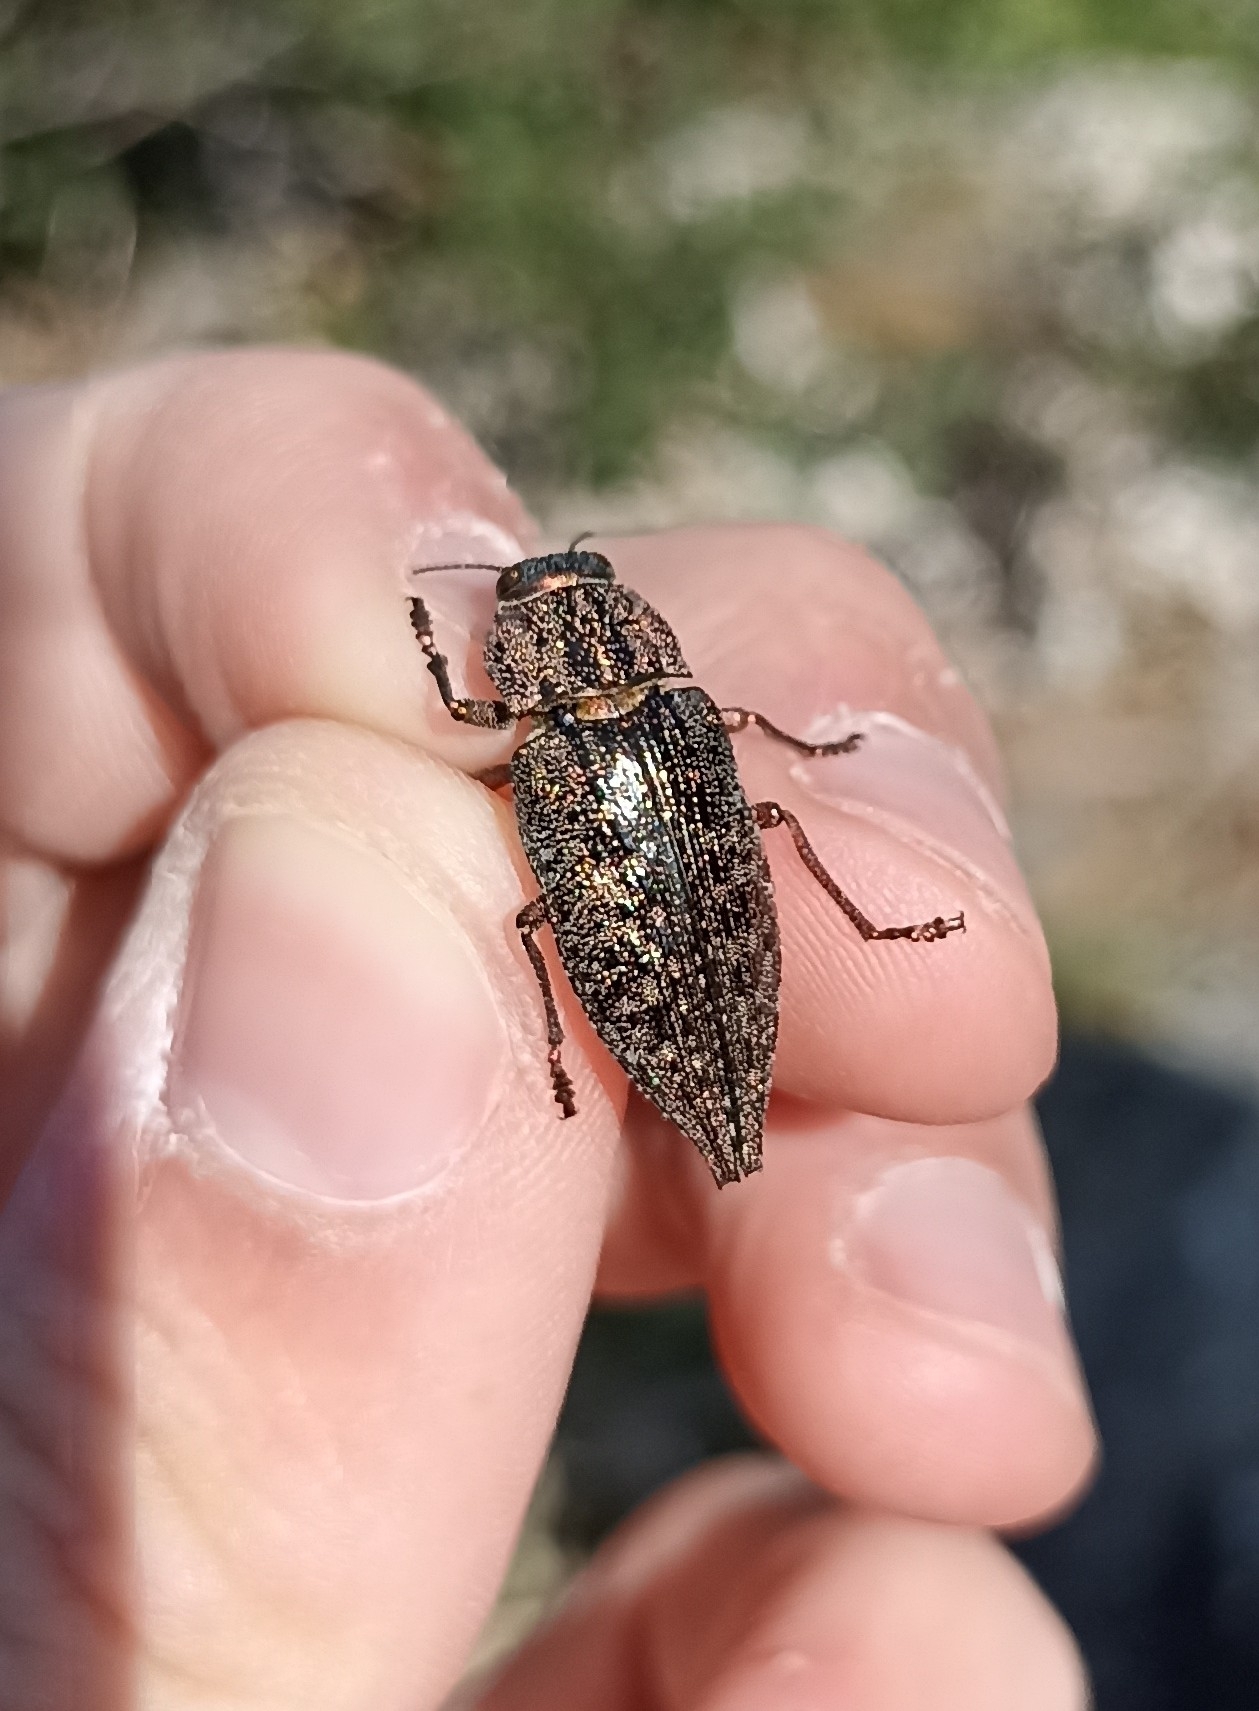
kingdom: Animalia
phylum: Arthropoda
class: Insecta
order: Coleoptera
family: Buprestidae
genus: Dicerca
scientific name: Dicerca alni
